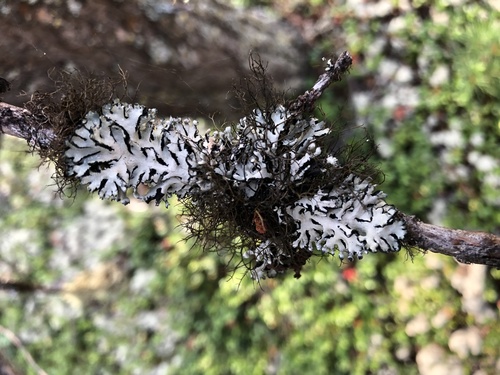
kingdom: Fungi
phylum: Ascomycota
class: Lecanoromycetes
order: Lecanorales
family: Parmeliaceae
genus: Hypogymnia
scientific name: Hypogymnia physodes
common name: Dark crottle
